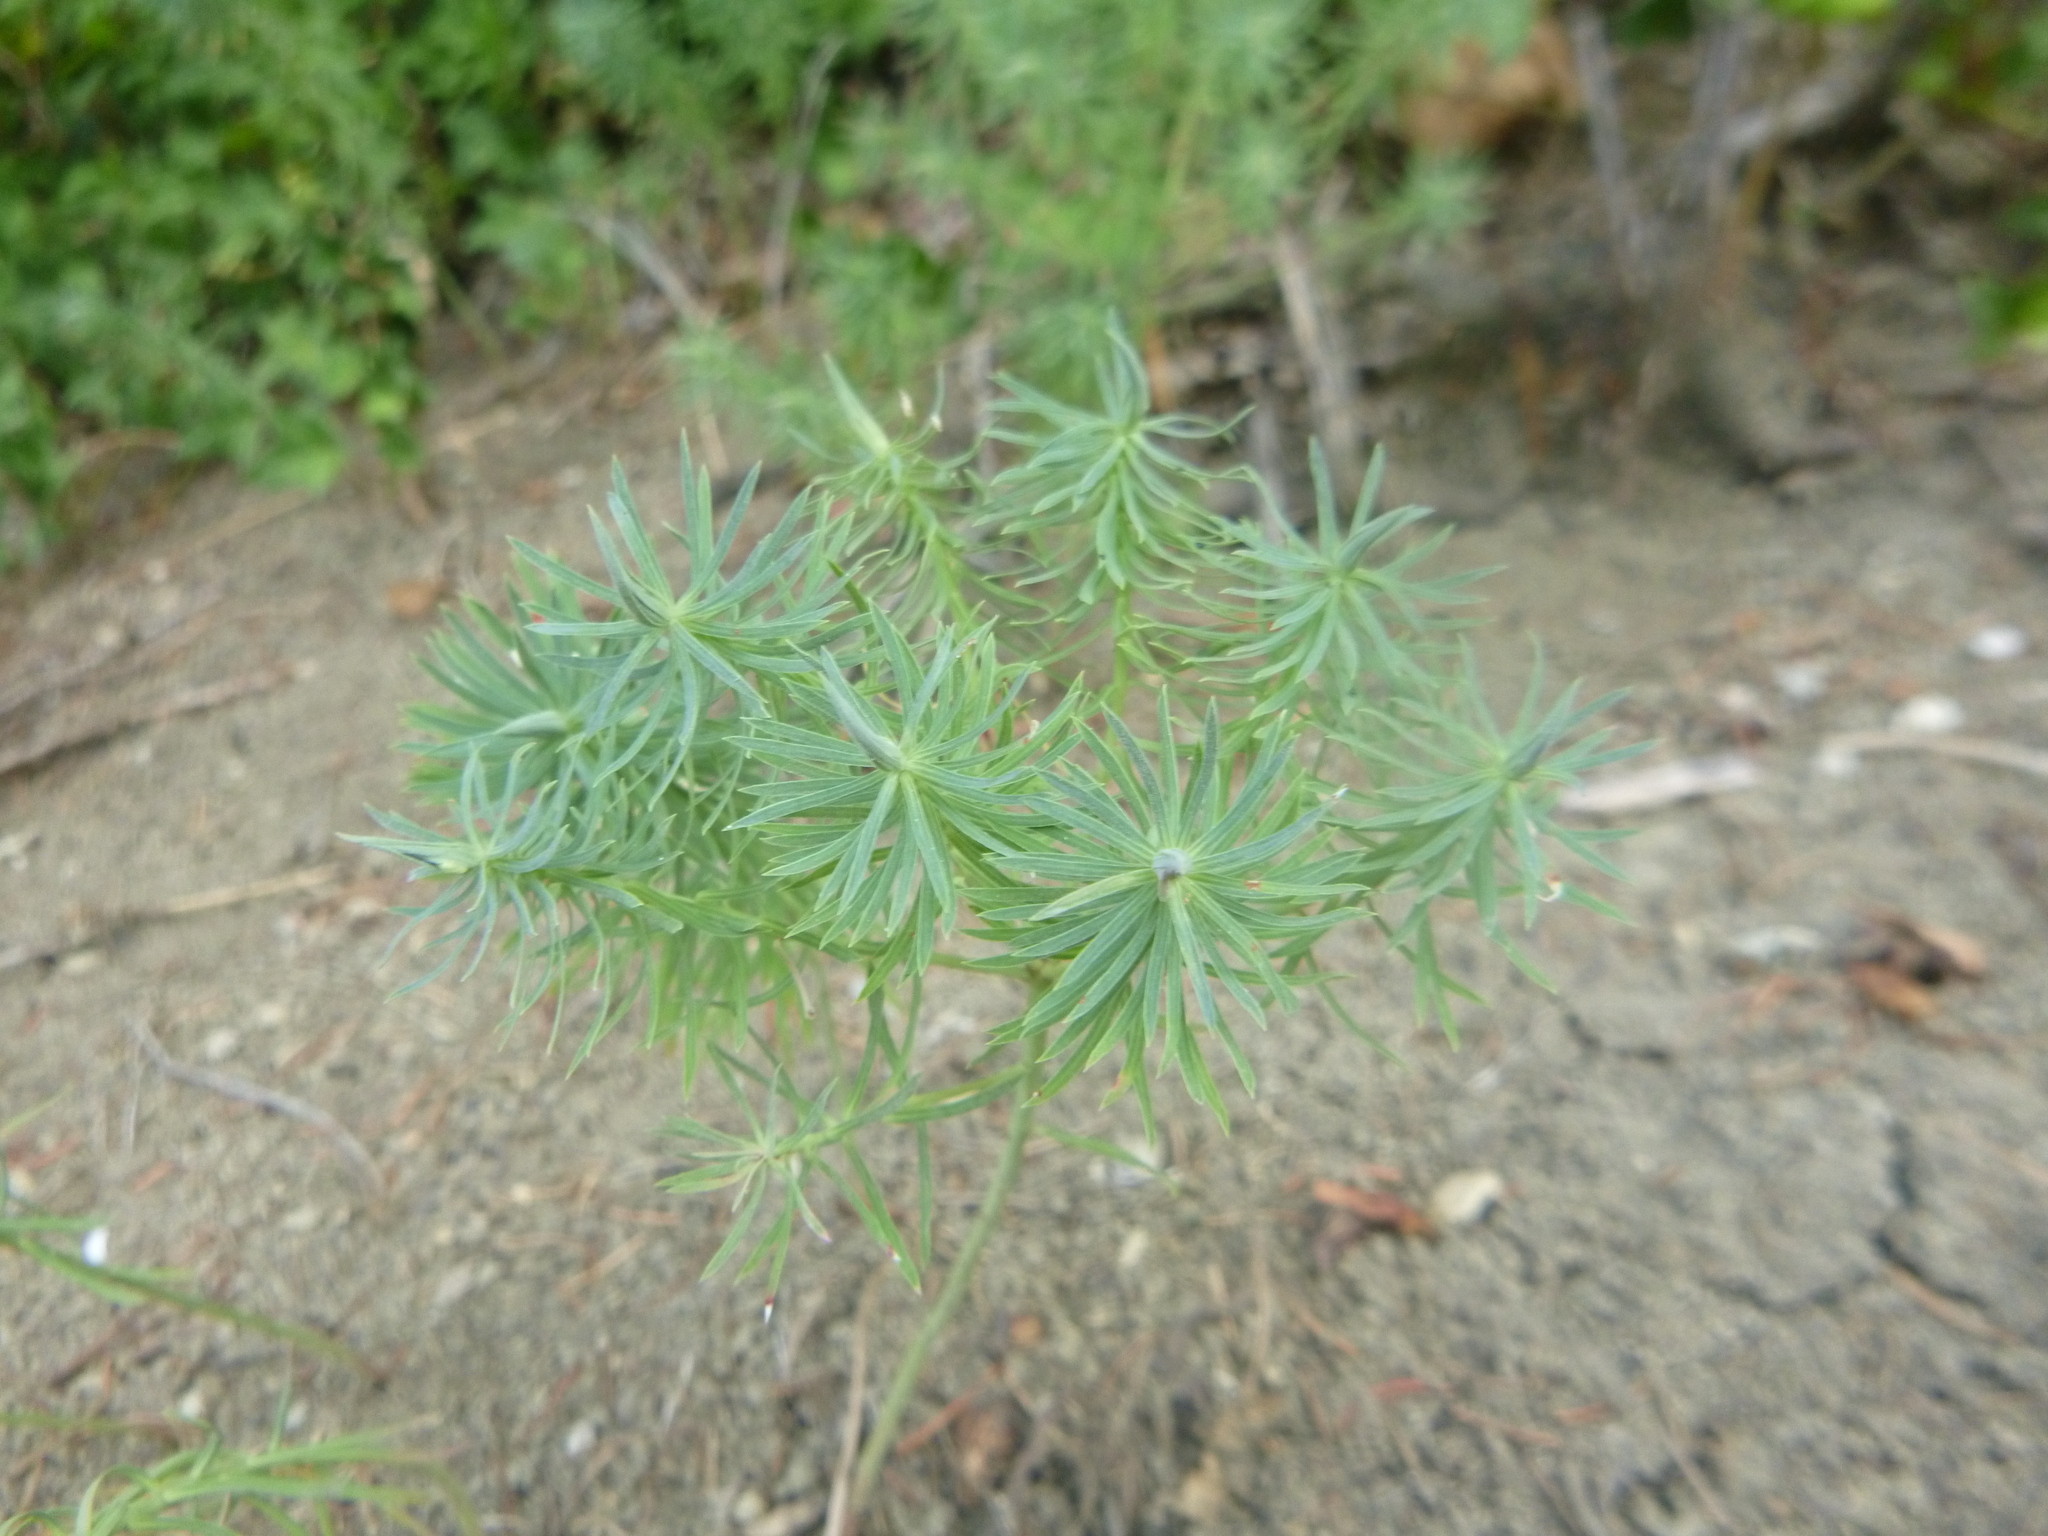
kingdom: Plantae
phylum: Tracheophyta
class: Magnoliopsida
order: Malpighiales
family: Euphorbiaceae
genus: Euphorbia
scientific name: Euphorbia cyparissias
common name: Cypress spurge
